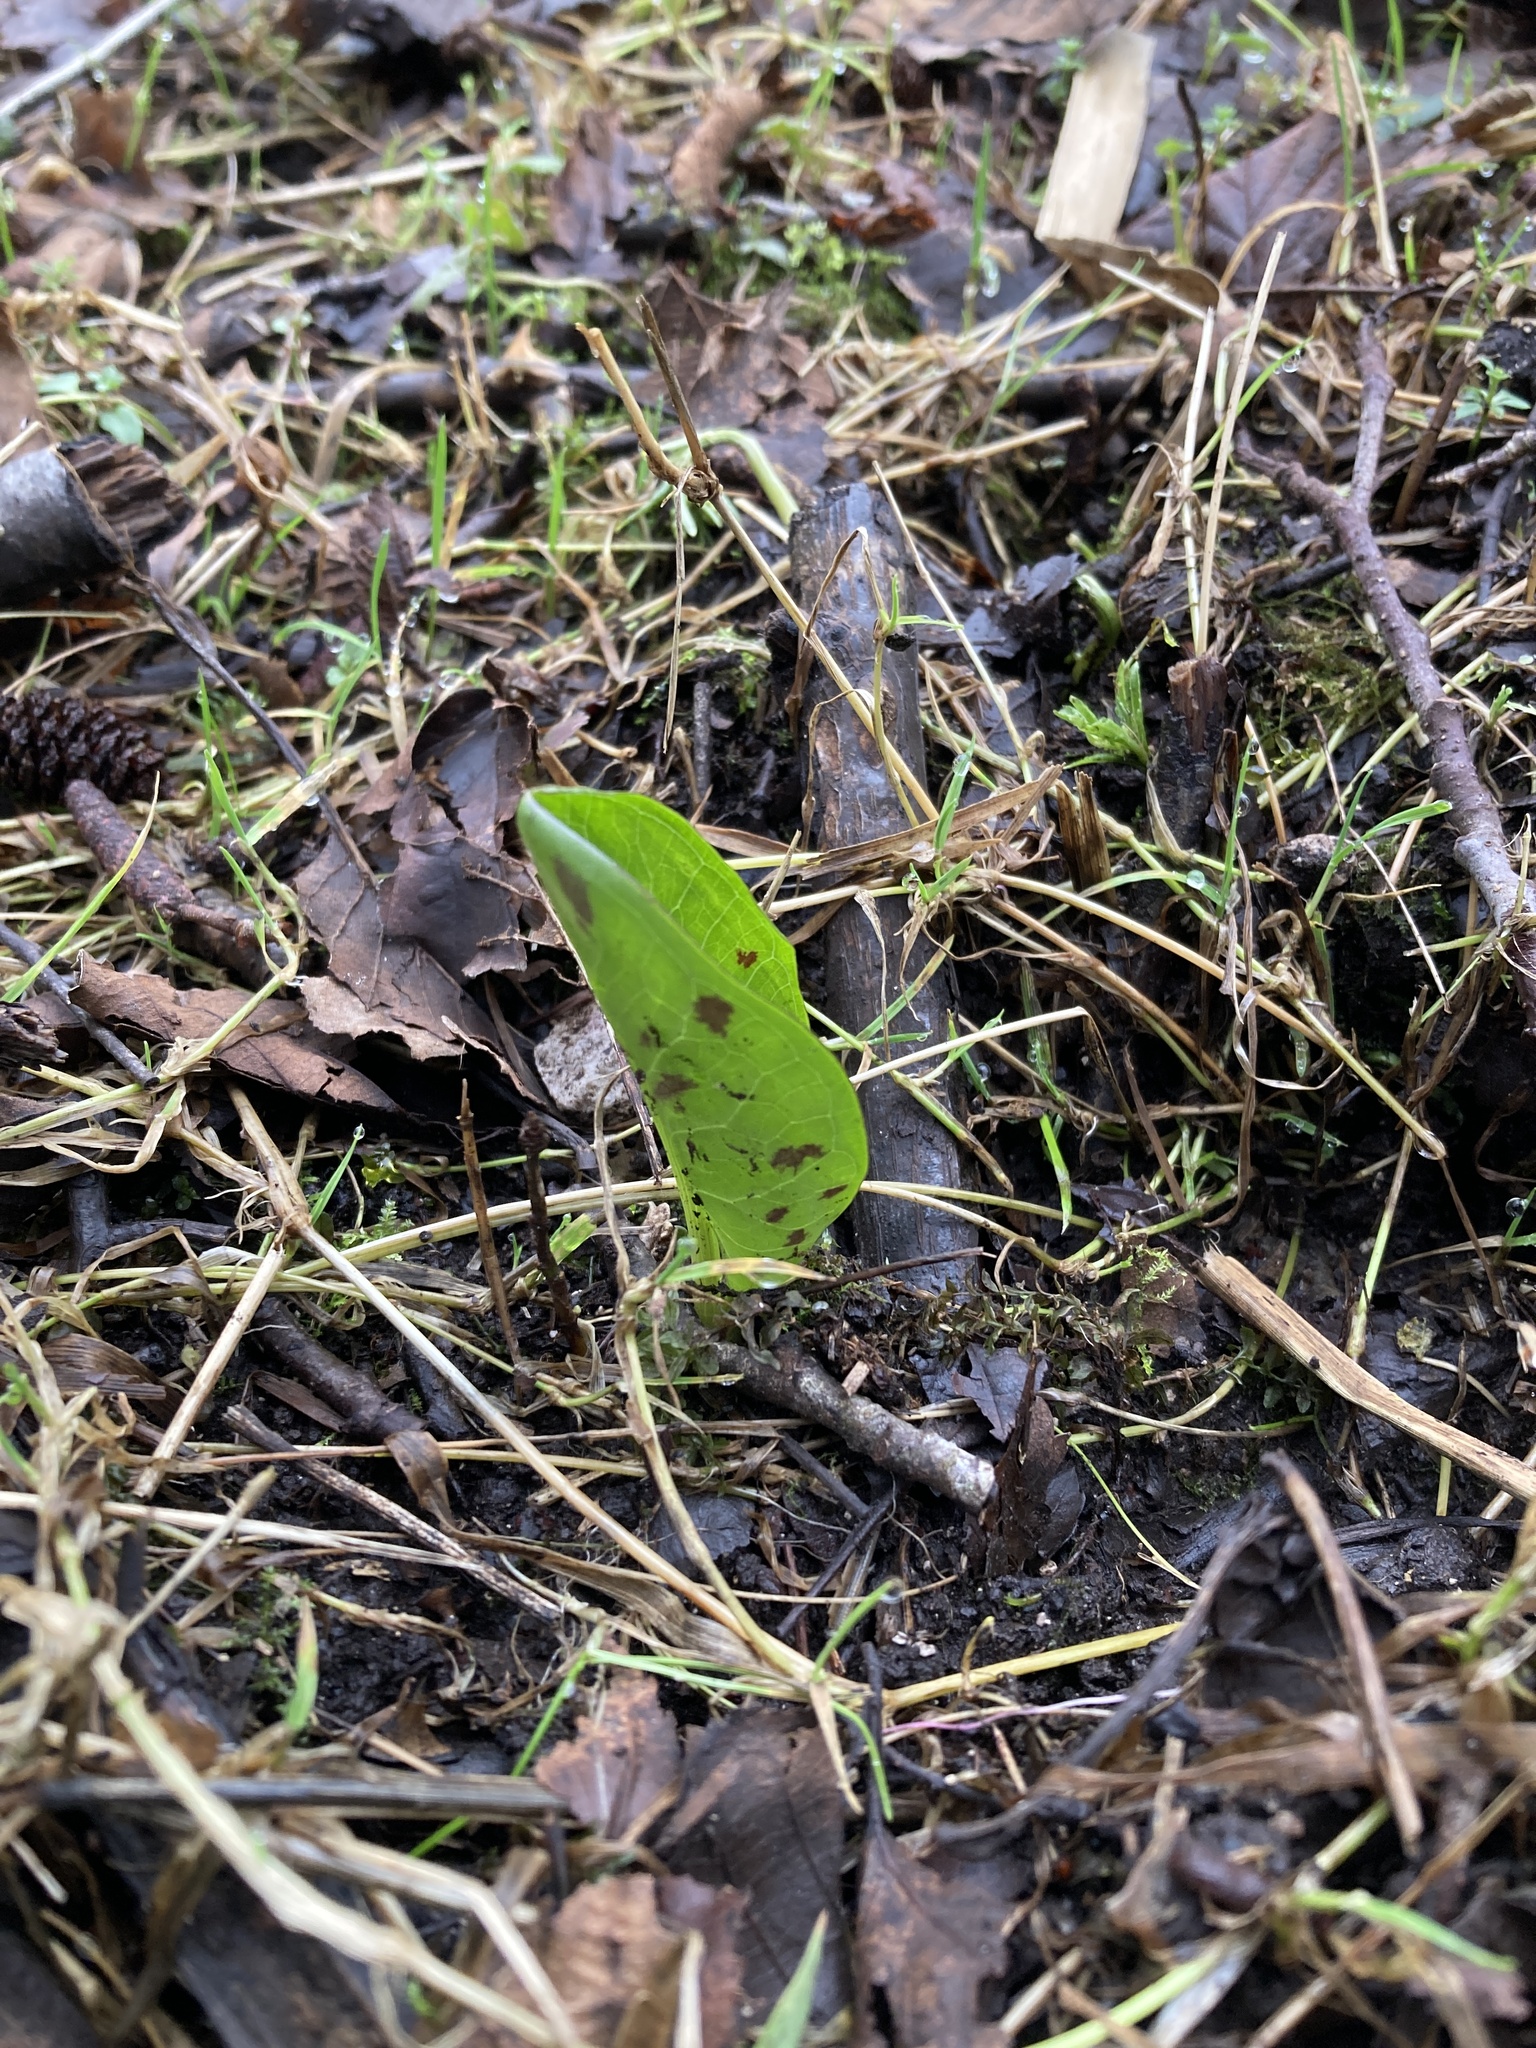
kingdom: Plantae
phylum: Tracheophyta
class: Liliopsida
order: Alismatales
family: Araceae
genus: Arum
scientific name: Arum maculatum
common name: Lords-and-ladies
